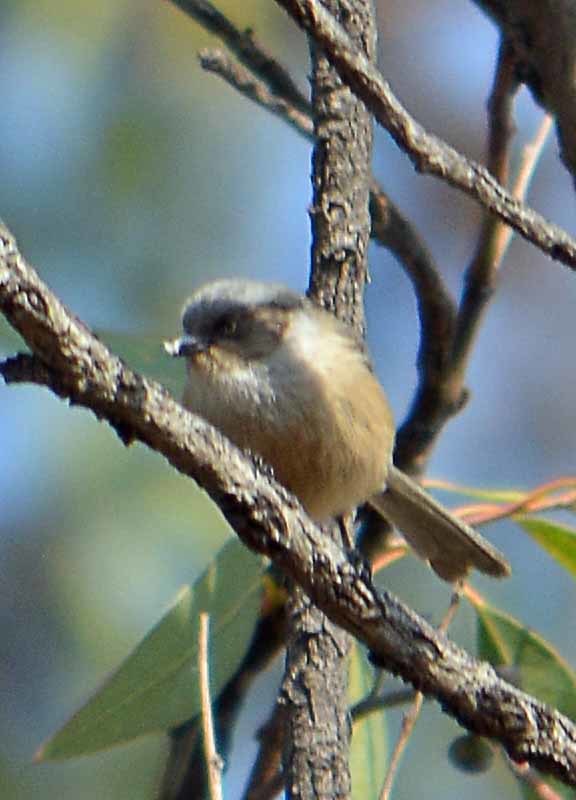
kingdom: Animalia
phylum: Chordata
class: Aves
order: Passeriformes
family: Aegithalidae
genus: Psaltriparus
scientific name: Psaltriparus minimus
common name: American bushtit
